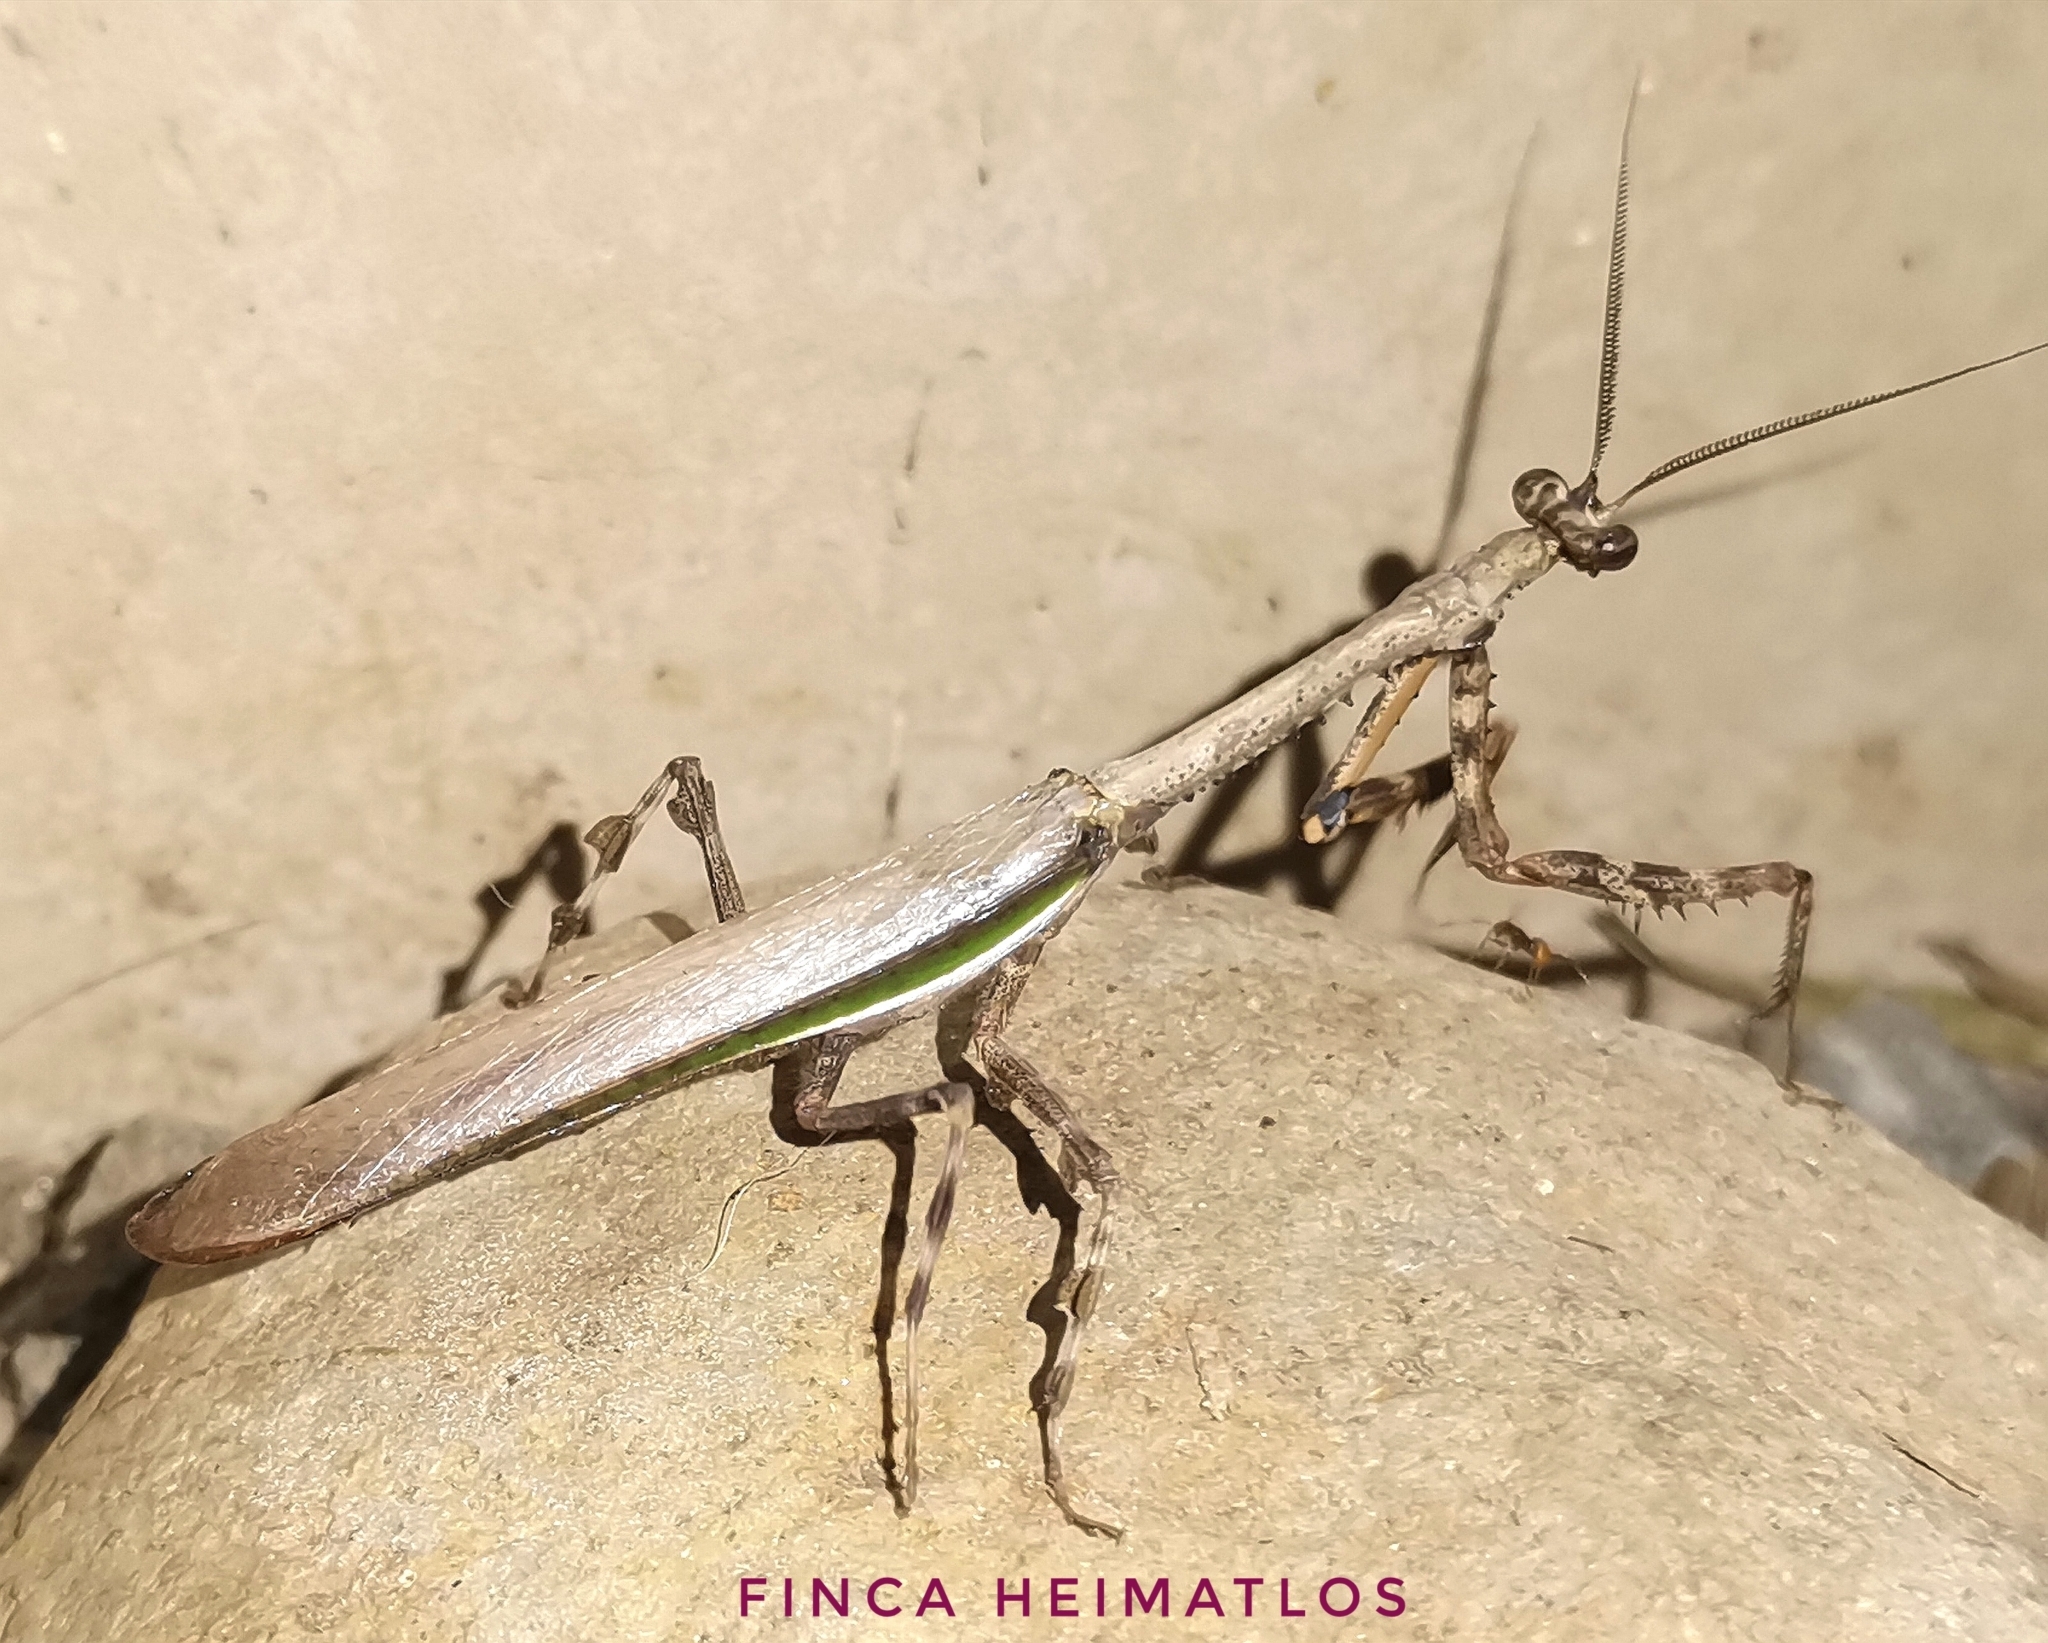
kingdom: Animalia
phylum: Arthropoda
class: Insecta
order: Mantodea
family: Mantidae
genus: Vates
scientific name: Vates biplagiata
